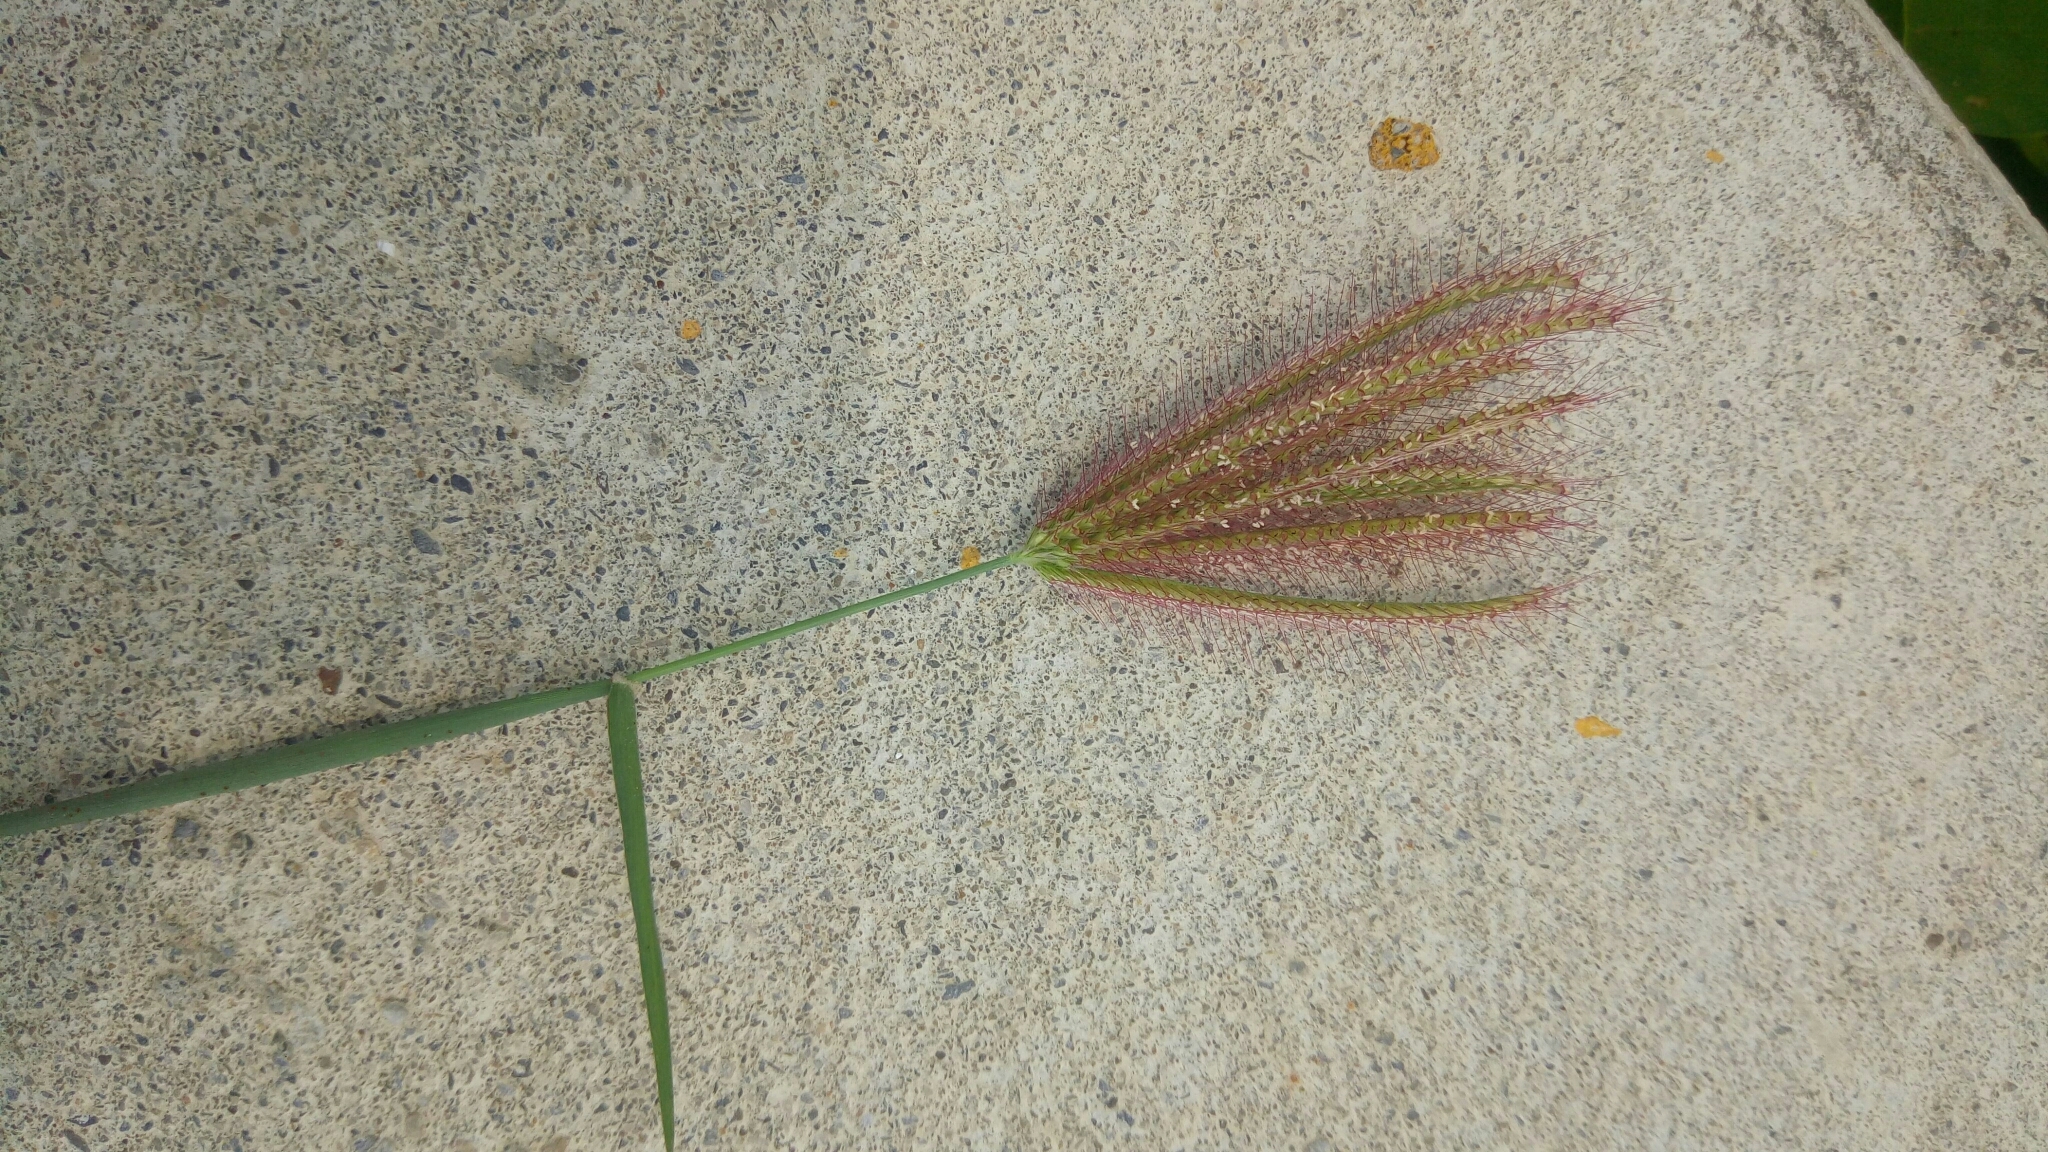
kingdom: Plantae
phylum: Tracheophyta
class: Liliopsida
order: Poales
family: Poaceae
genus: Chloris
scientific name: Chloris barbata
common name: Swollen fingergrass
